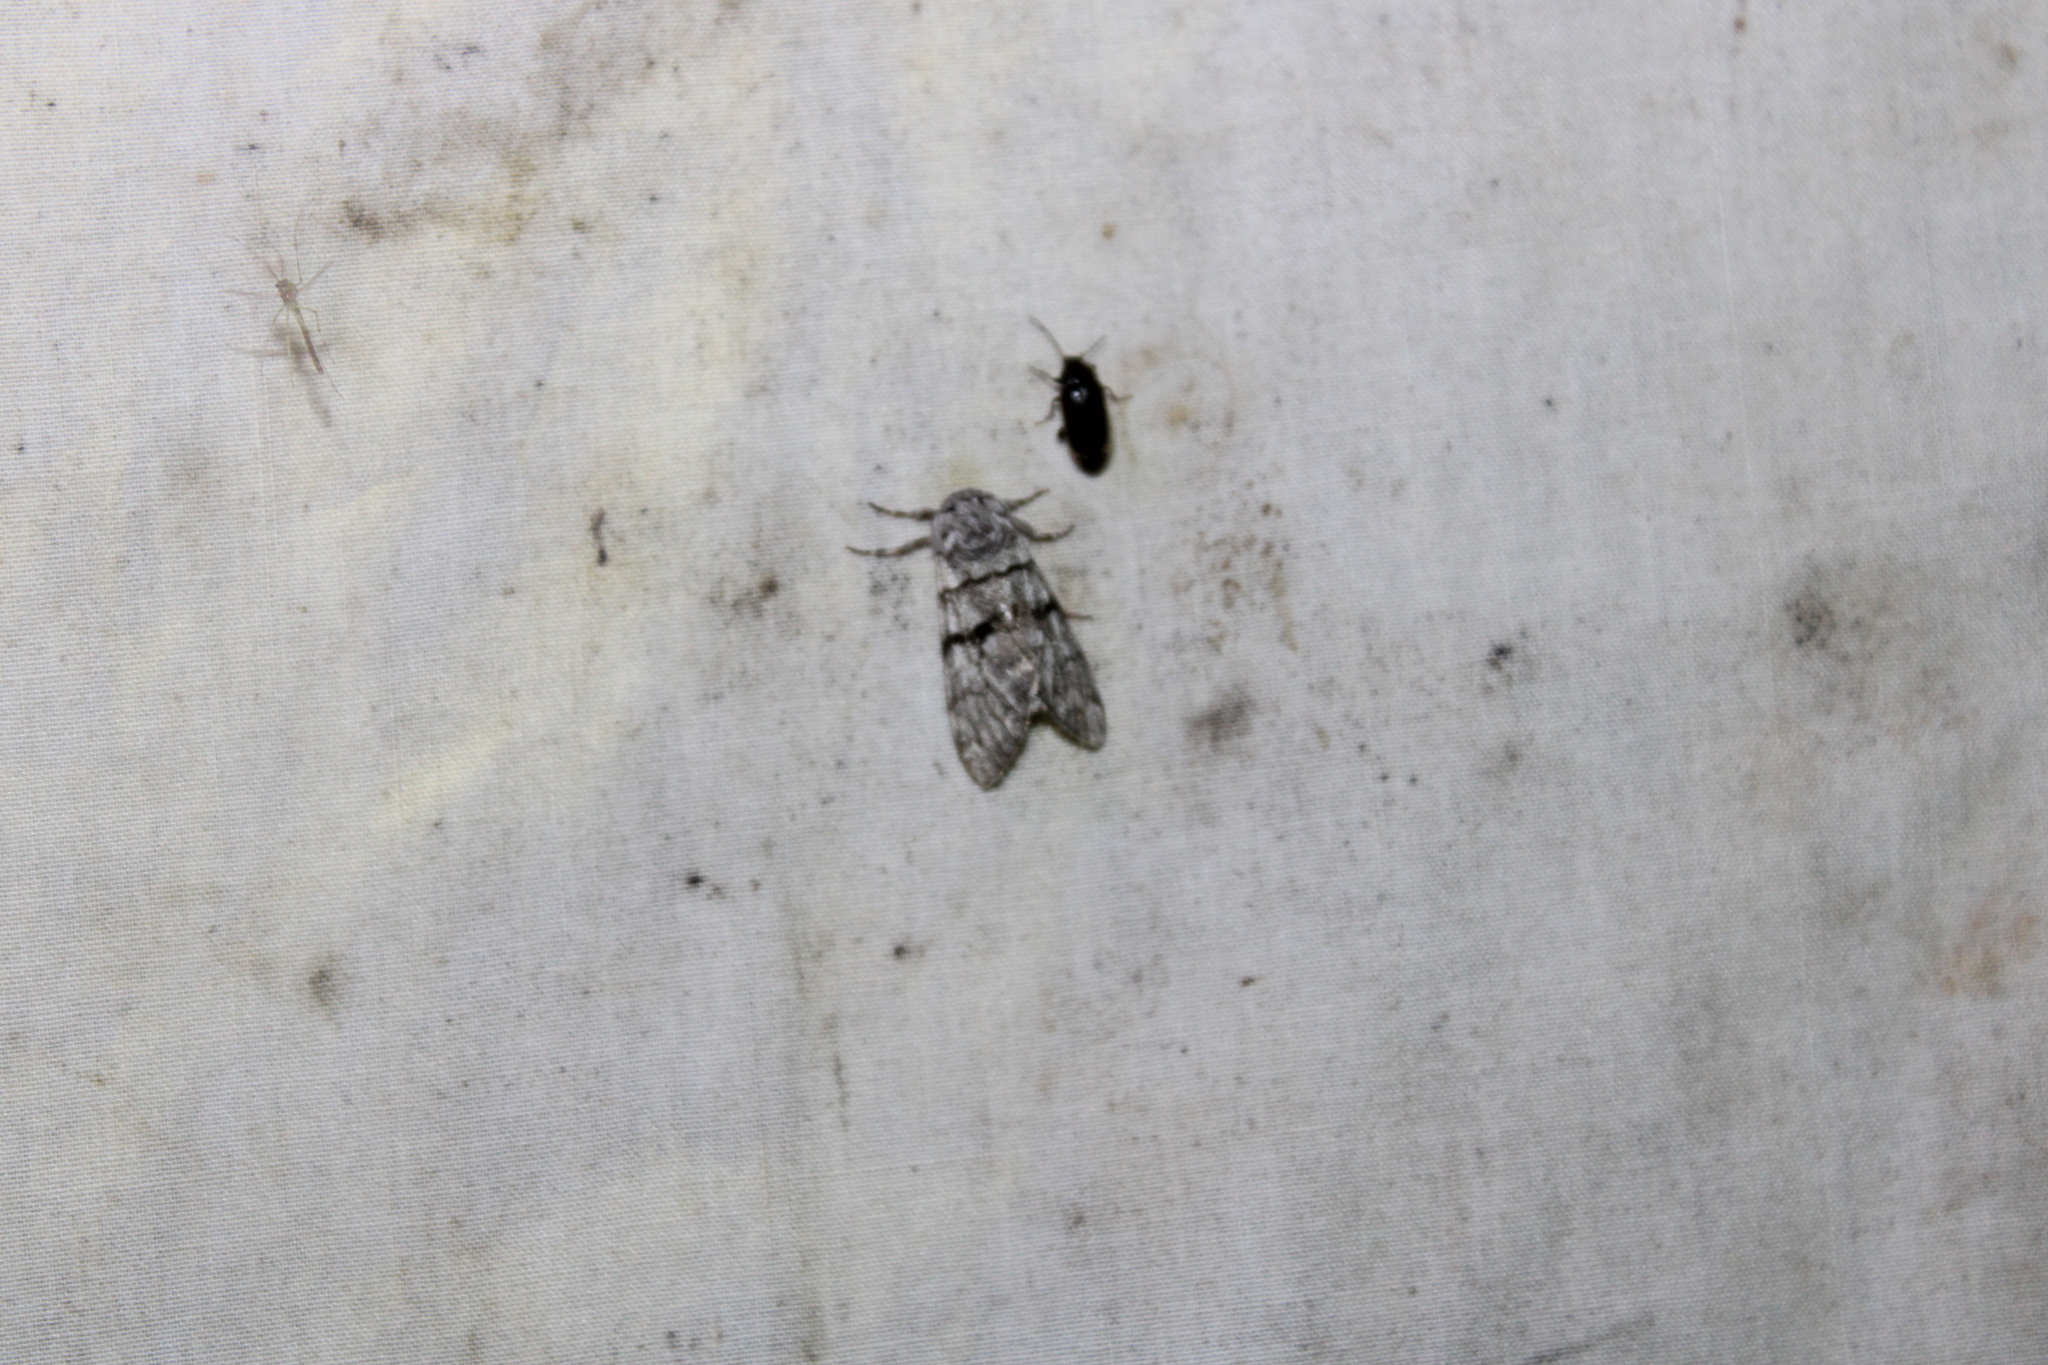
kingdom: Animalia
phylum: Arthropoda
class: Insecta
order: Lepidoptera
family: Noctuidae
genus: Panthea
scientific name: Panthea furcilla
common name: Eastern panthea moth
